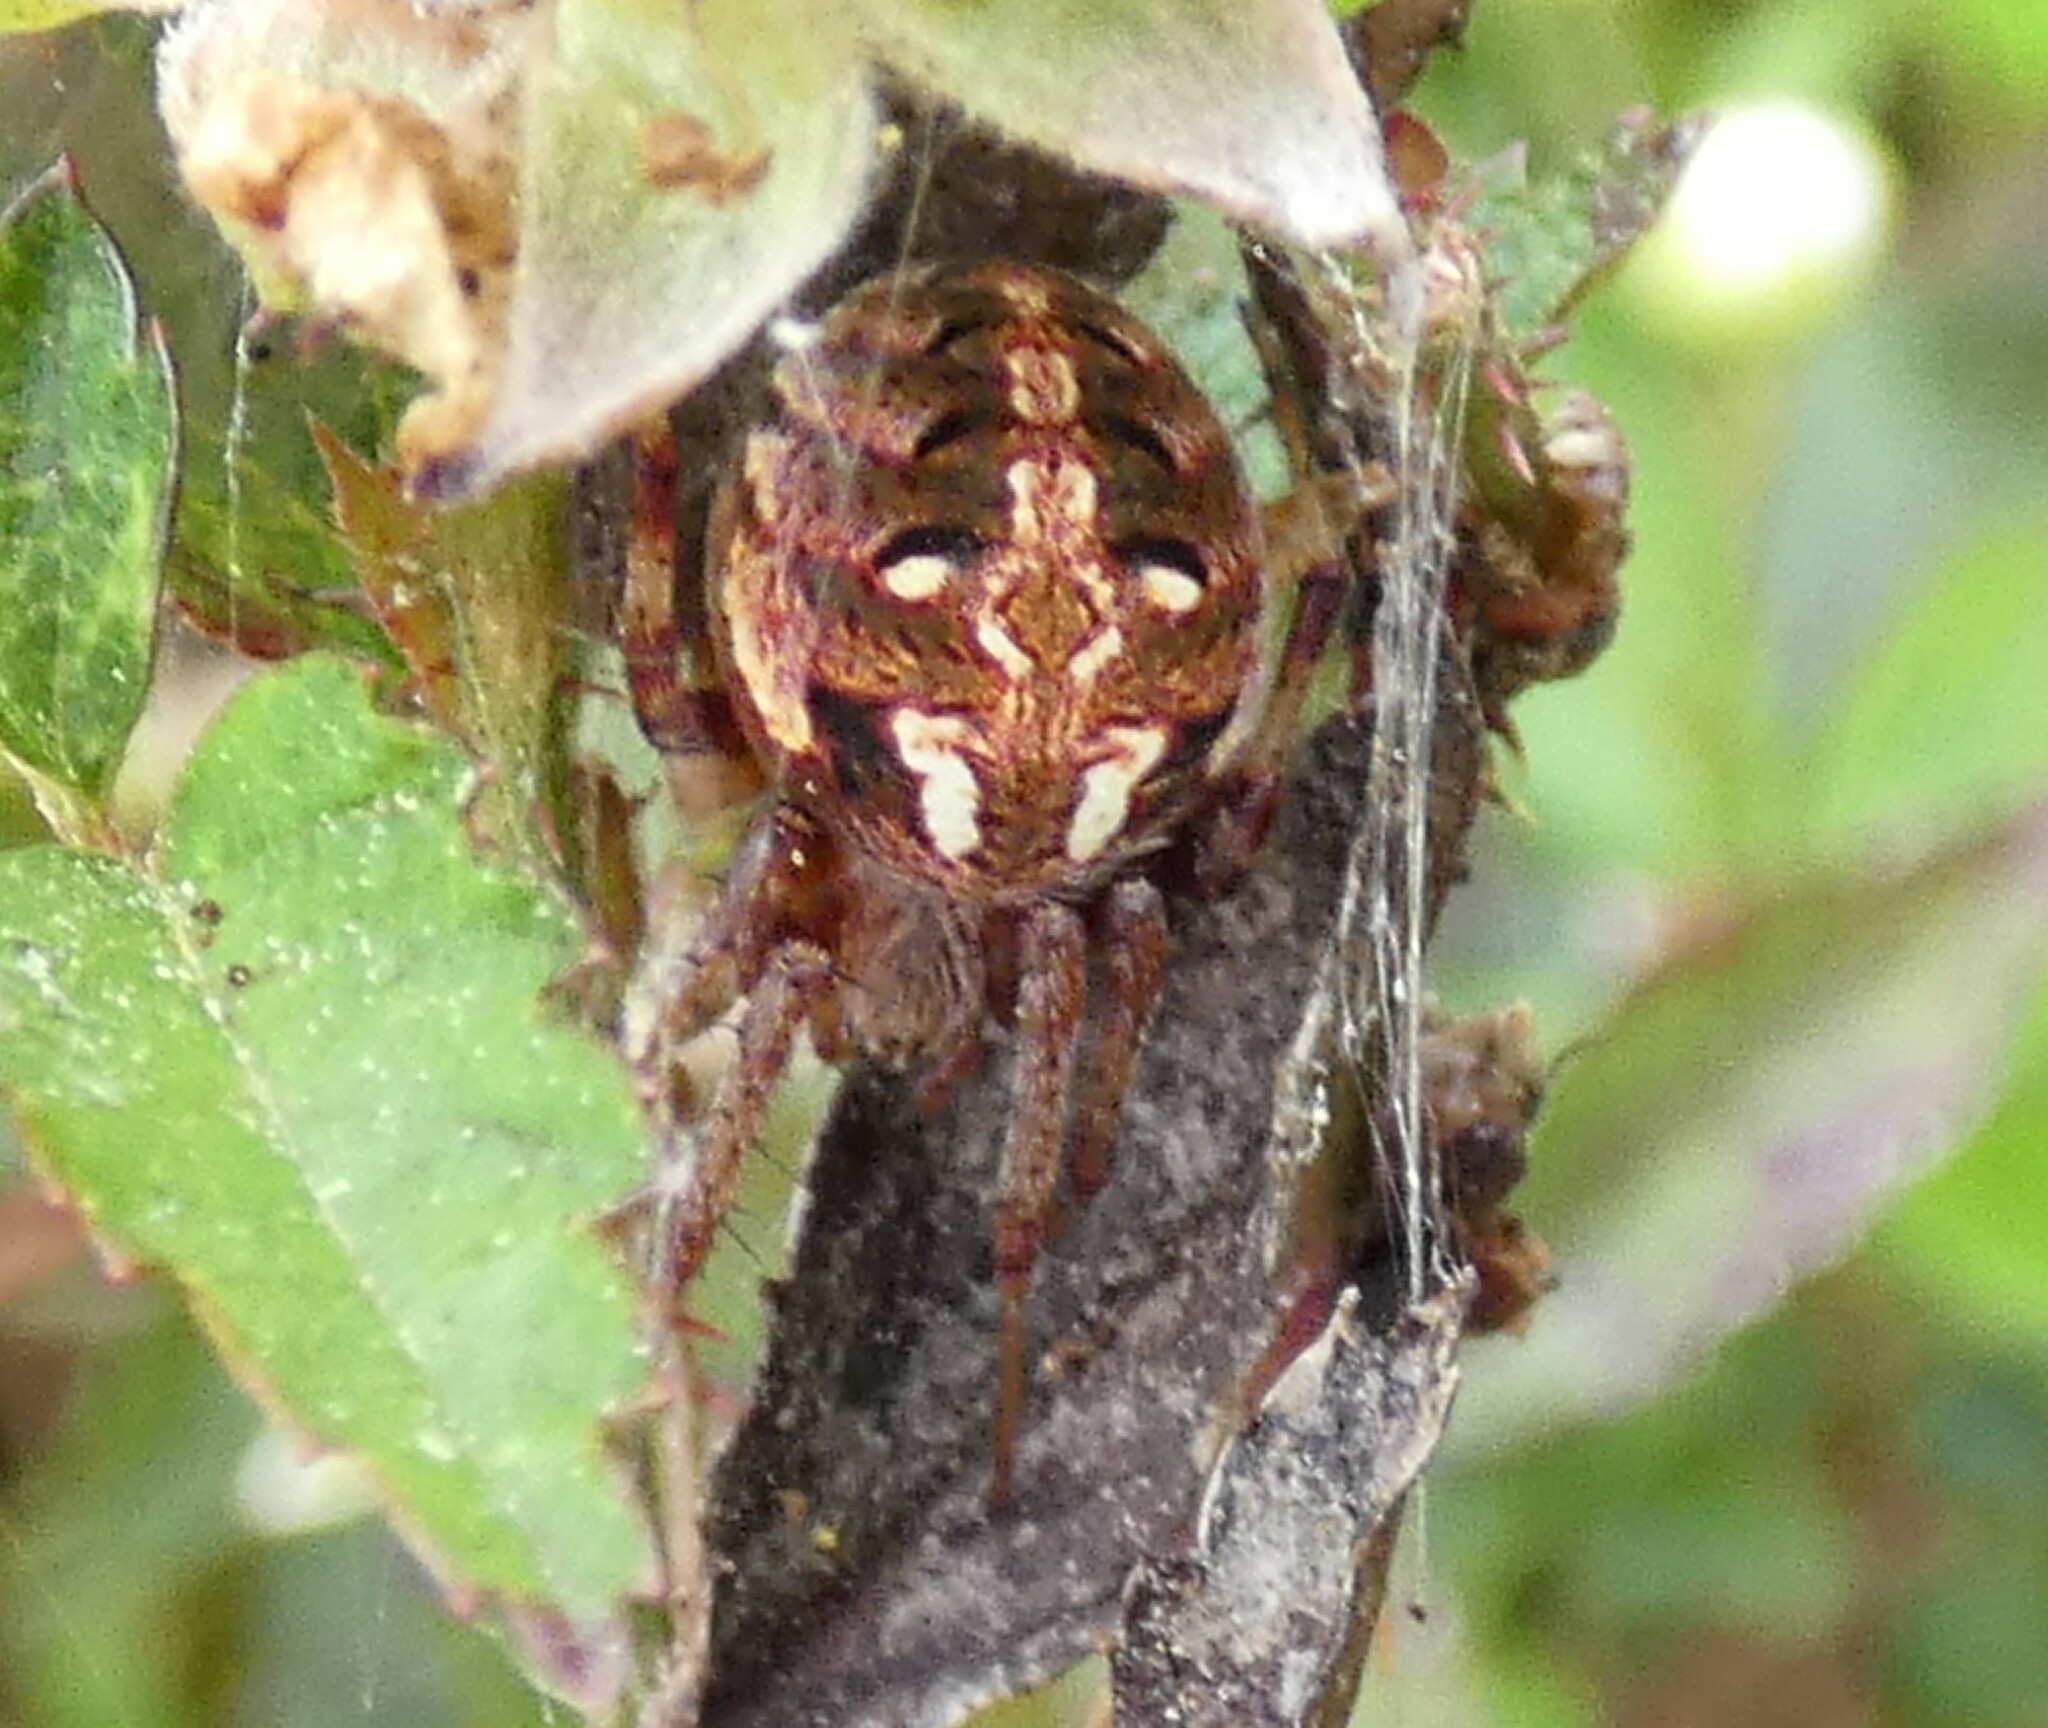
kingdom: Animalia
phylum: Arthropoda
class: Arachnida
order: Araneae
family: Araneidae
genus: Neoscona
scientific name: Neoscona arabesca
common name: Orb weavers
